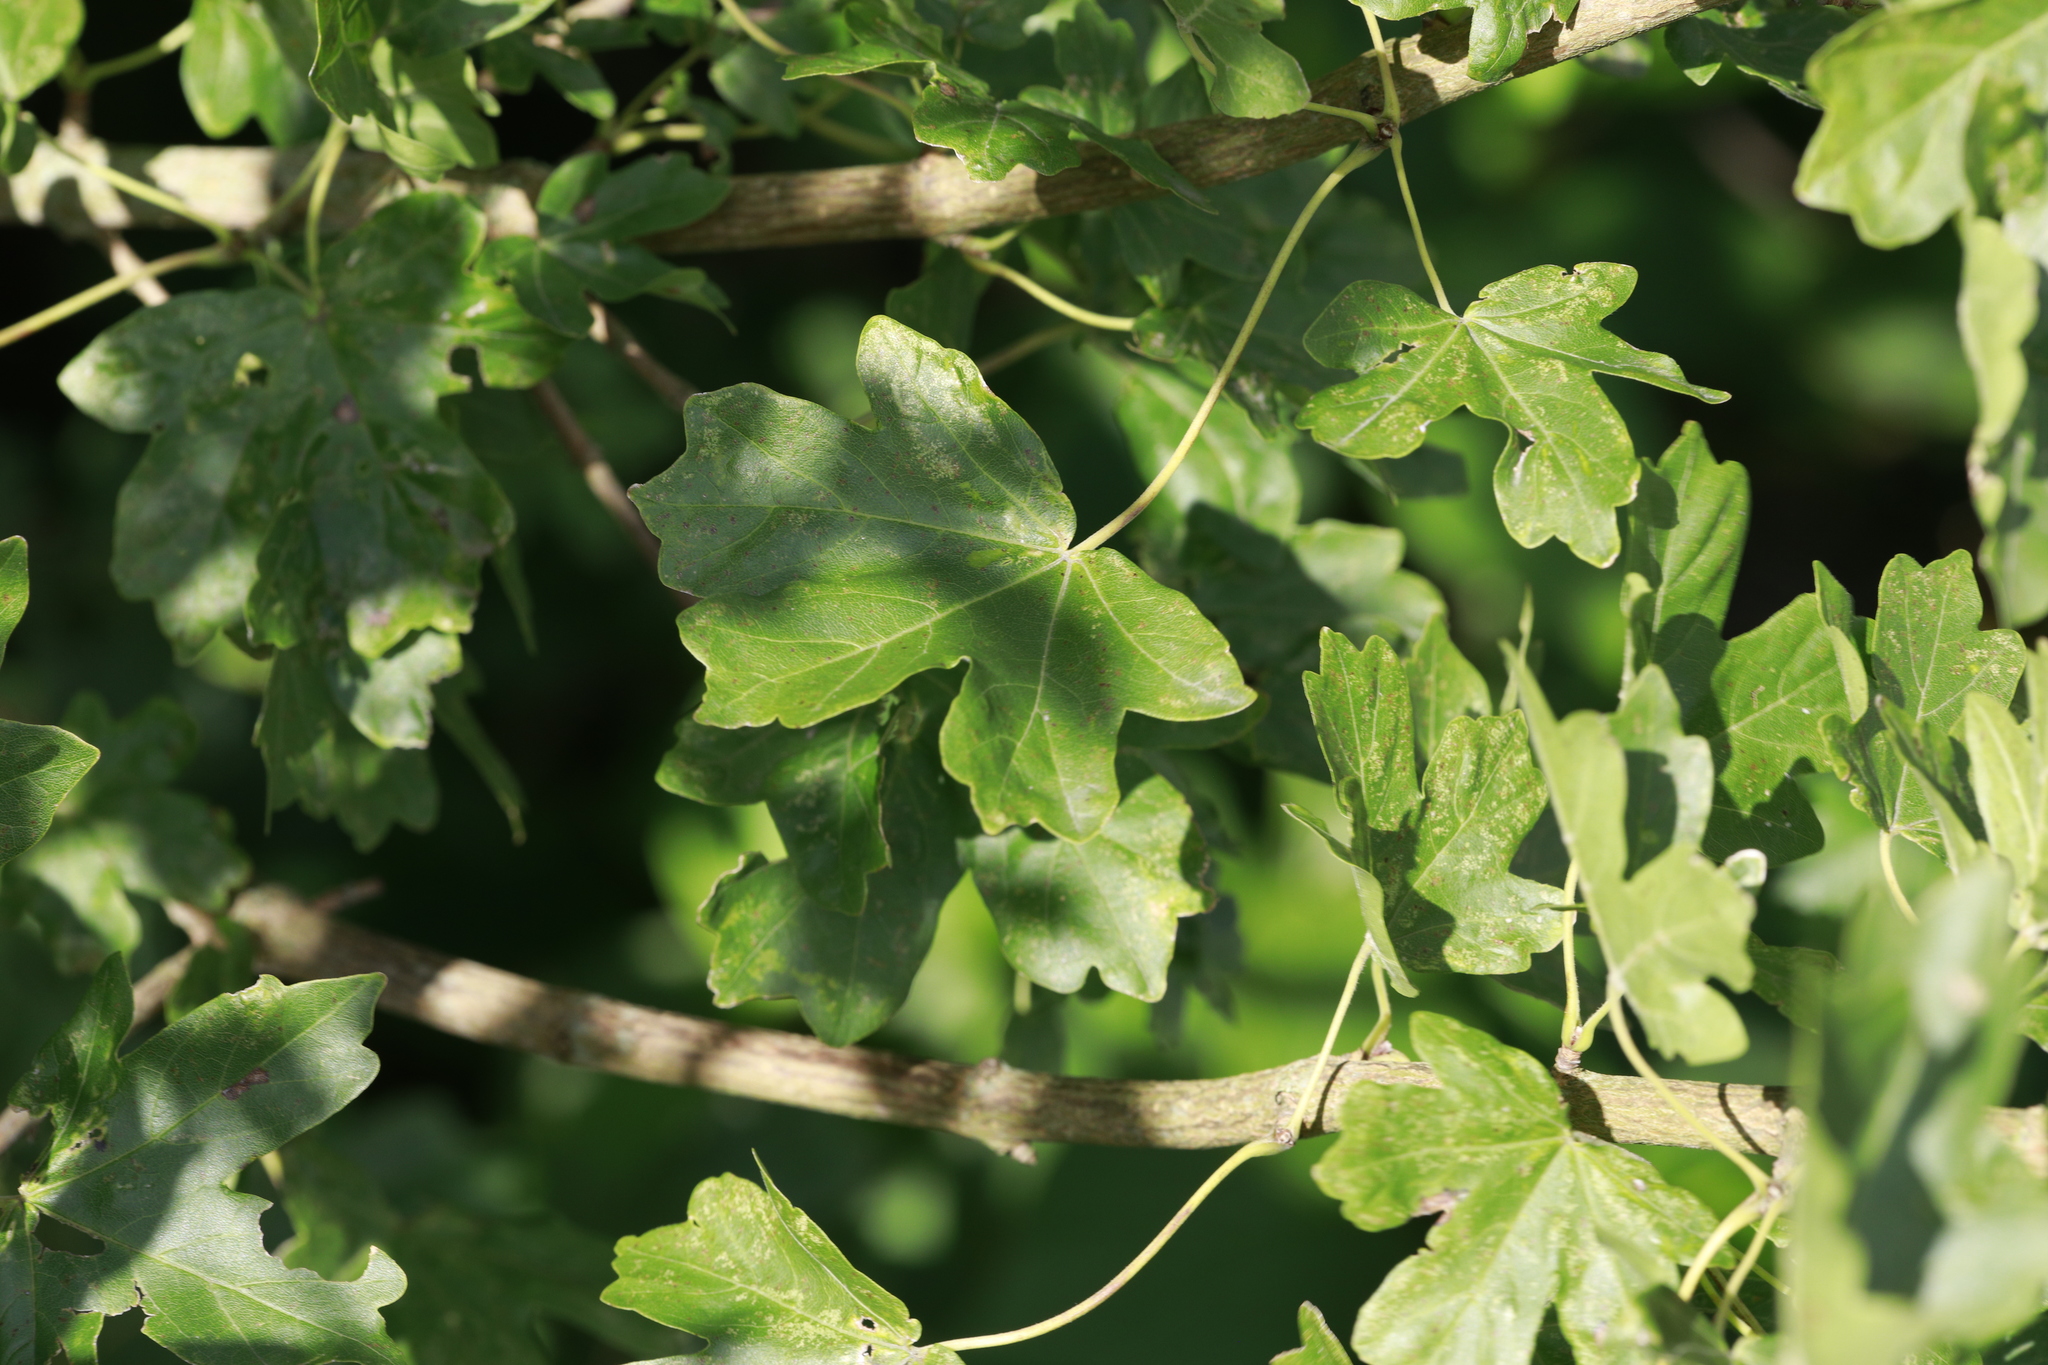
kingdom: Plantae
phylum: Tracheophyta
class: Magnoliopsida
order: Sapindales
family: Sapindaceae
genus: Acer
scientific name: Acer campestre
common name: Field maple
